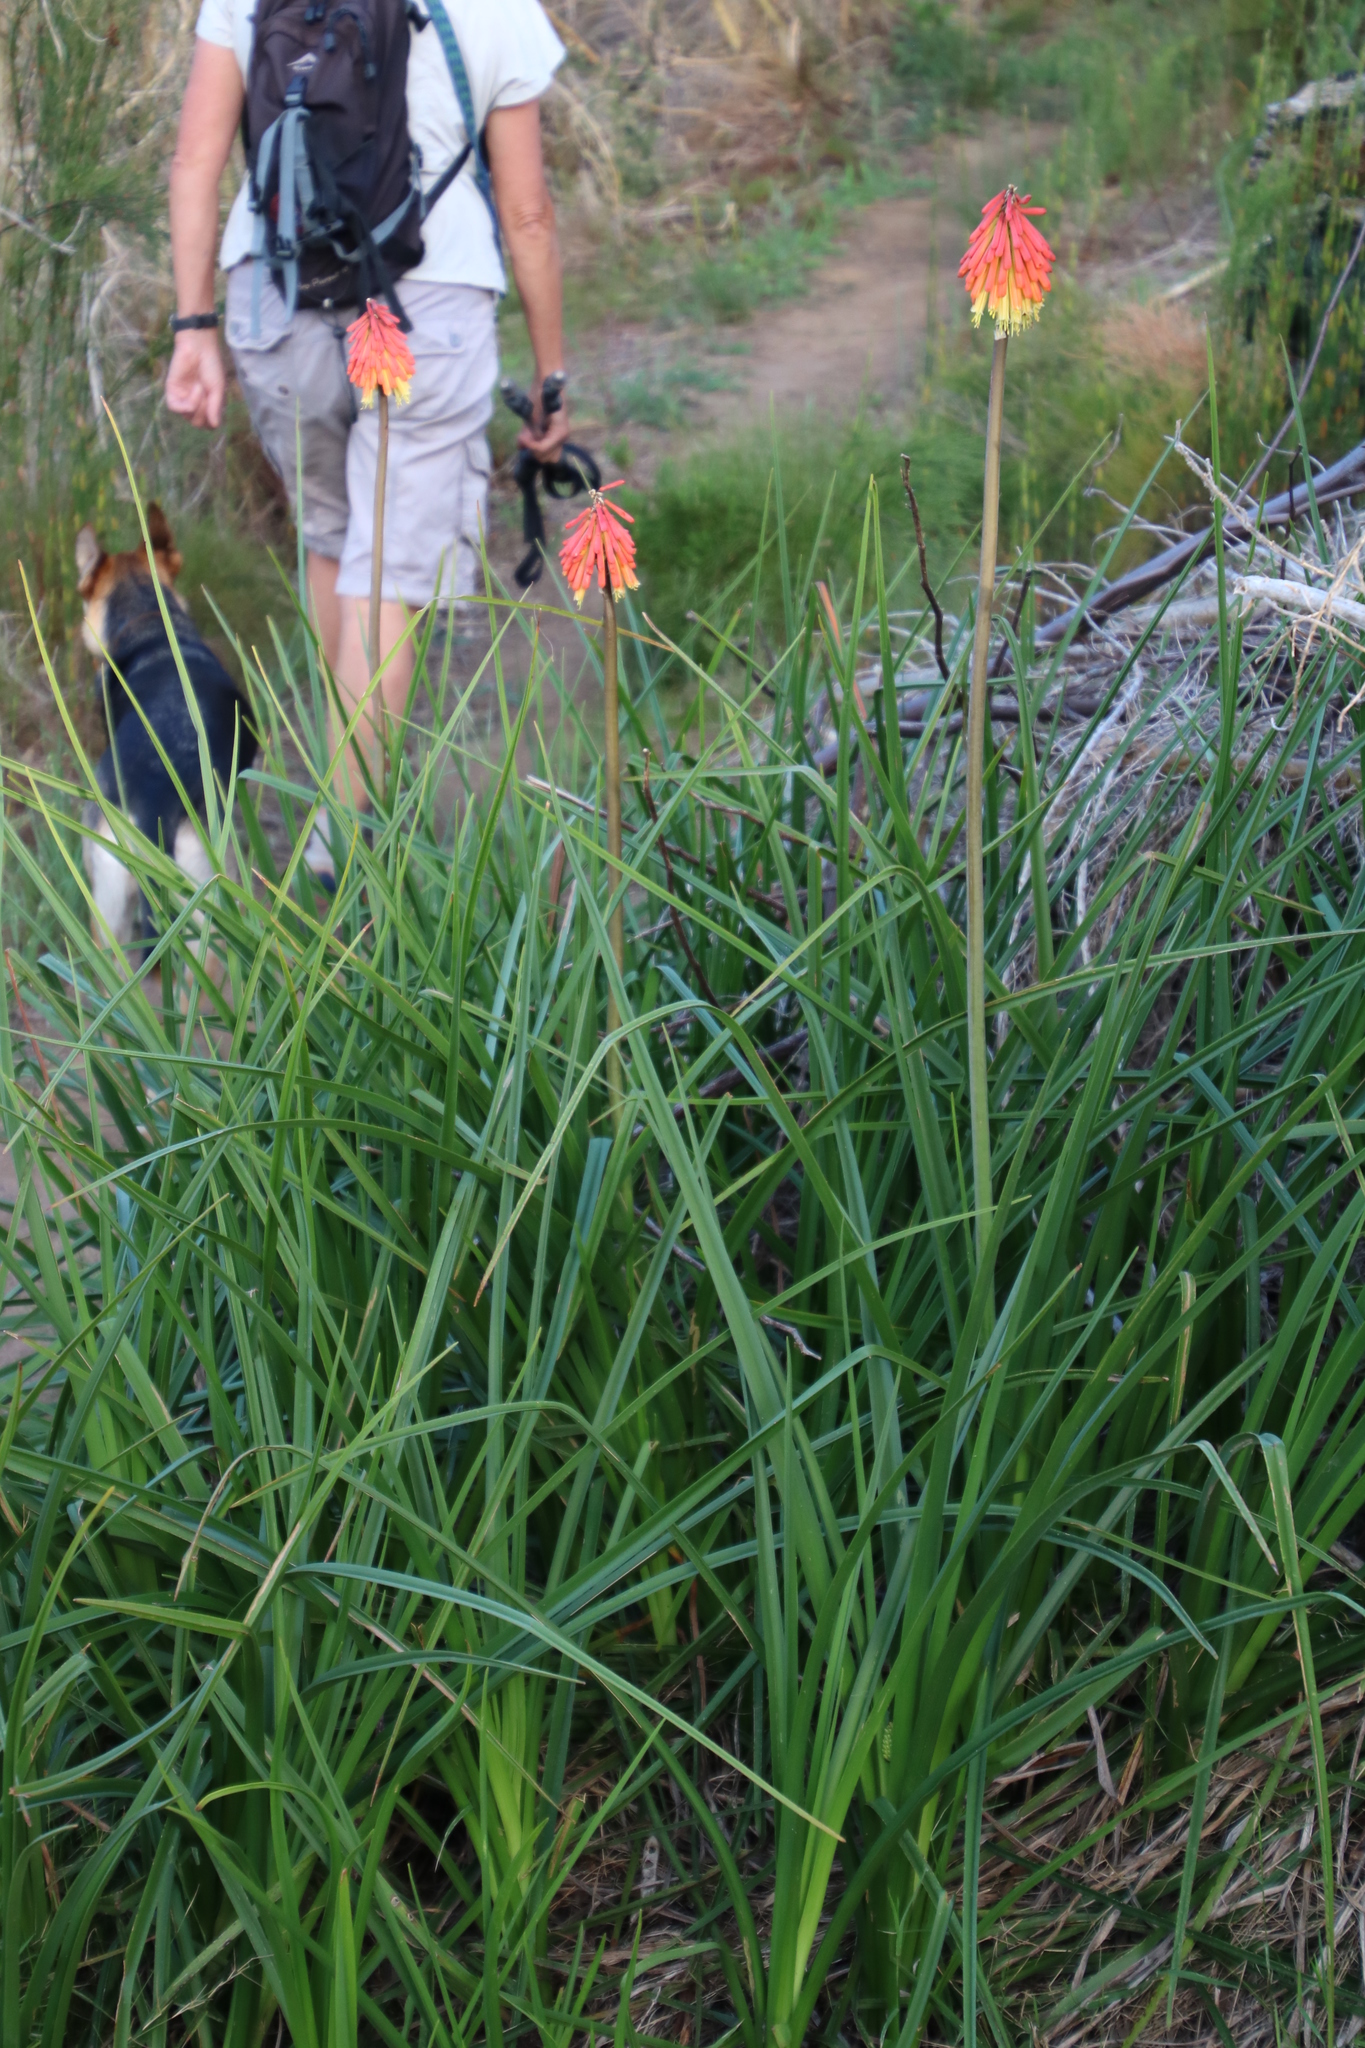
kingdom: Plantae
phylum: Tracheophyta
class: Liliopsida
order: Asparagales
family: Asphodelaceae
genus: Kniphofia
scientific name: Kniphofia uvaria
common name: Red-hot-poker
